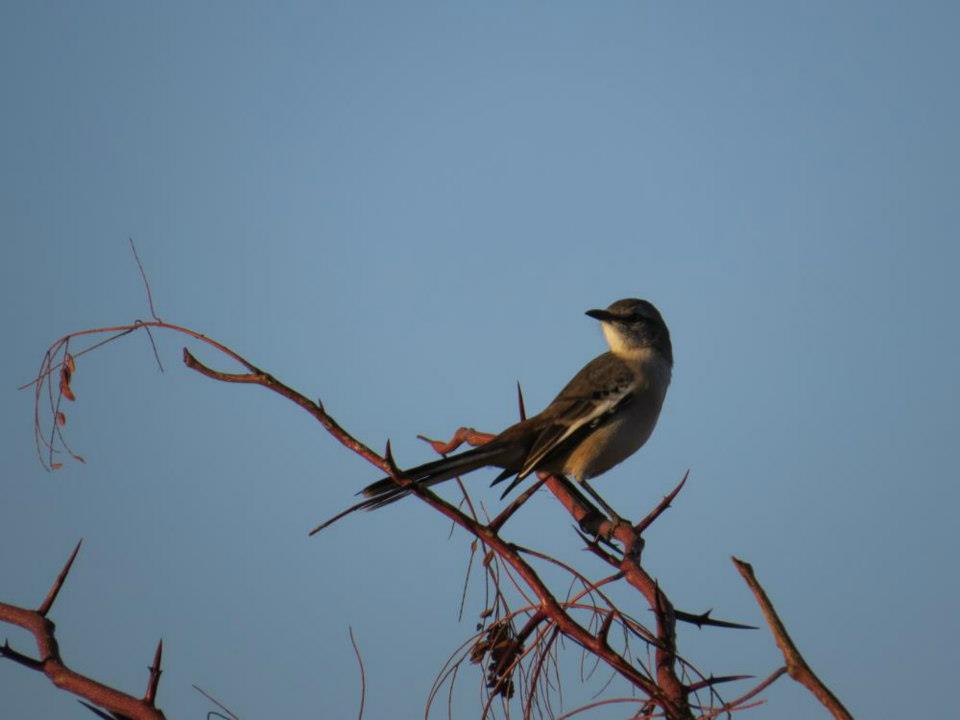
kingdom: Animalia
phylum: Chordata
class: Aves
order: Passeriformes
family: Mimidae
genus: Mimus
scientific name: Mimus triurus
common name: White-banded mockingbird
